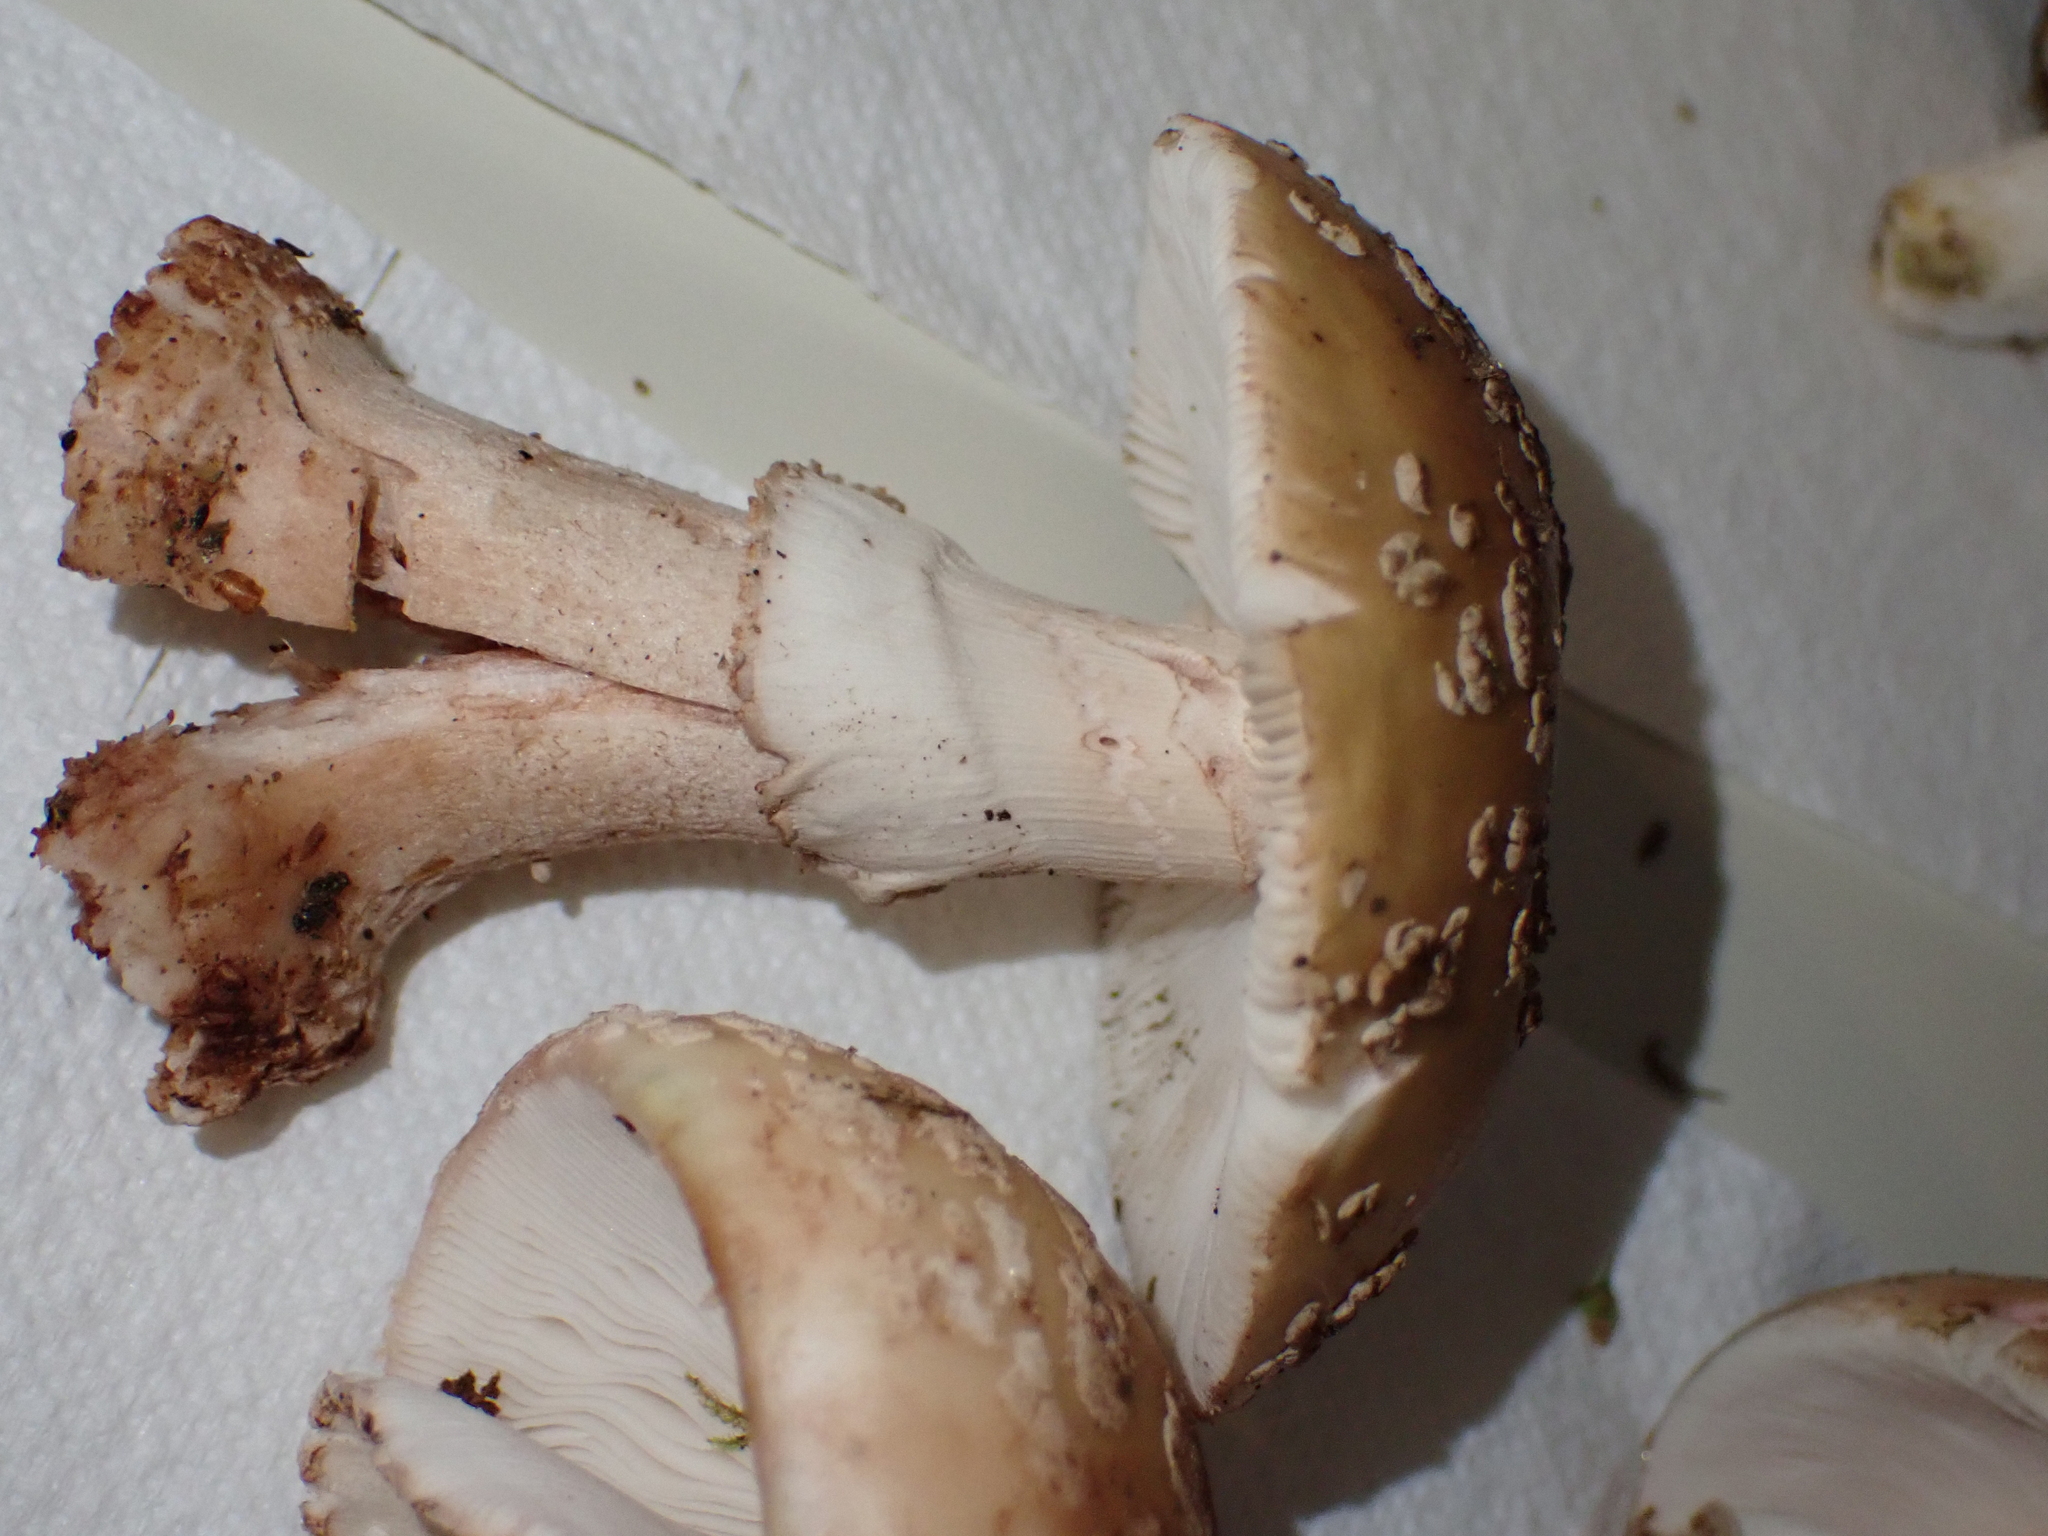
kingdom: Fungi
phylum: Basidiomycota
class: Agaricomycetes
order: Agaricales
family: Amanitaceae
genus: Amanita
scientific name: Amanita rubescens
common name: Blusher
